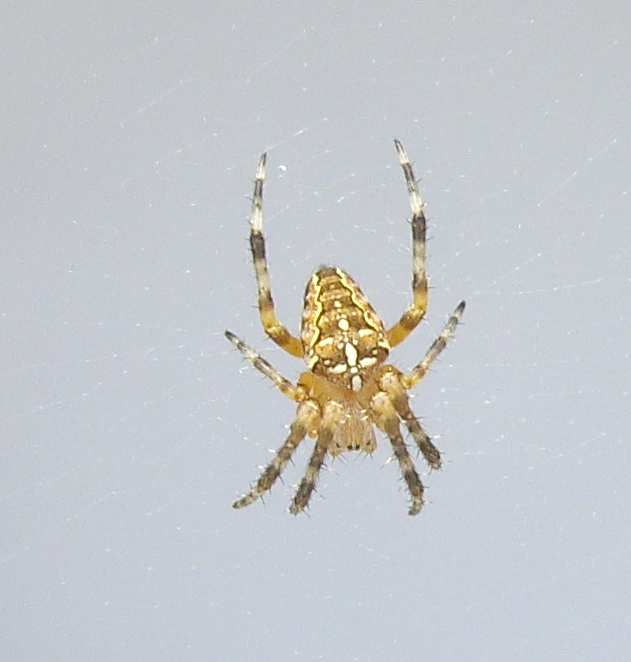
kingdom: Animalia
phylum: Arthropoda
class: Arachnida
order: Araneae
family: Araneidae
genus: Araneus
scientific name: Araneus diadematus
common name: Cross orbweaver
